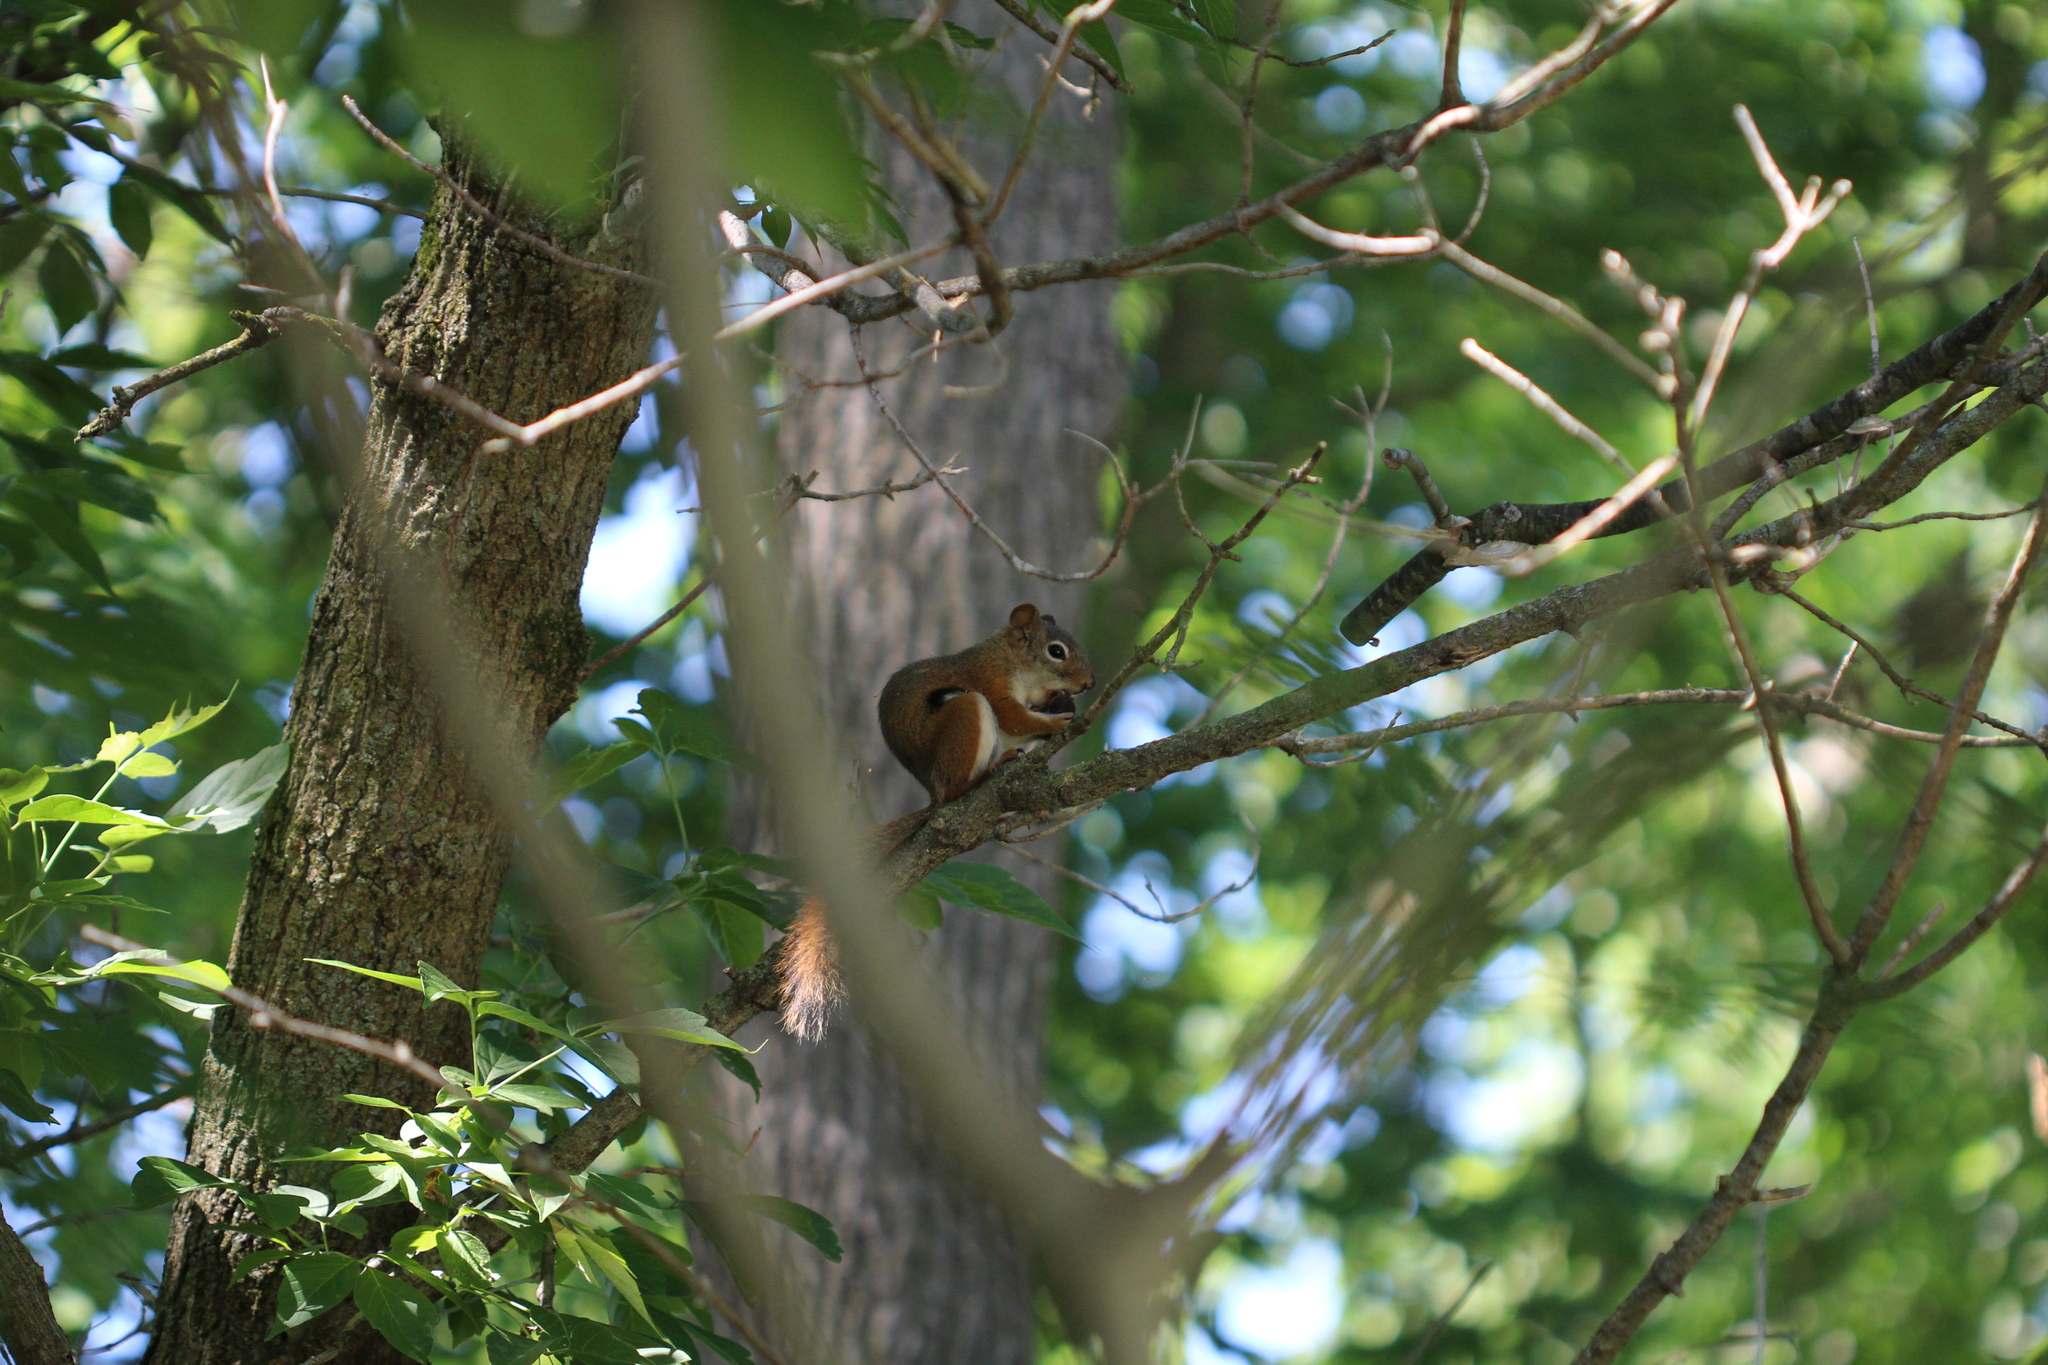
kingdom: Animalia
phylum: Chordata
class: Mammalia
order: Rodentia
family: Sciuridae
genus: Tamiasciurus
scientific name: Tamiasciurus hudsonicus
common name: Red squirrel
